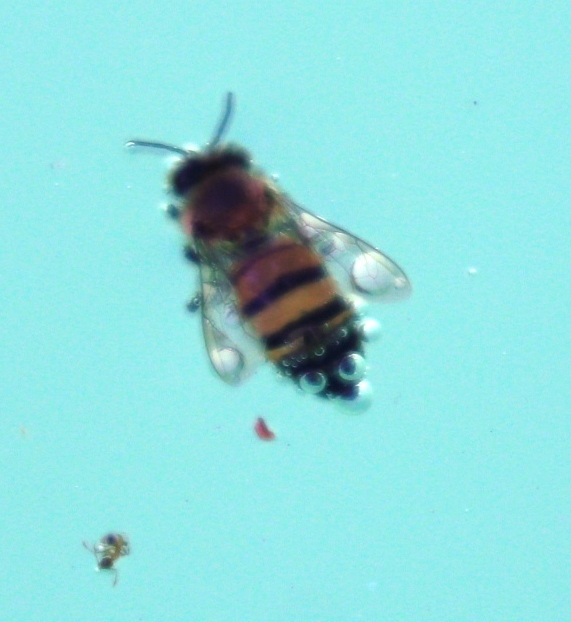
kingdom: Animalia
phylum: Arthropoda
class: Insecta
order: Hymenoptera
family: Apidae
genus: Apis
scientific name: Apis mellifera
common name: Honey bee
